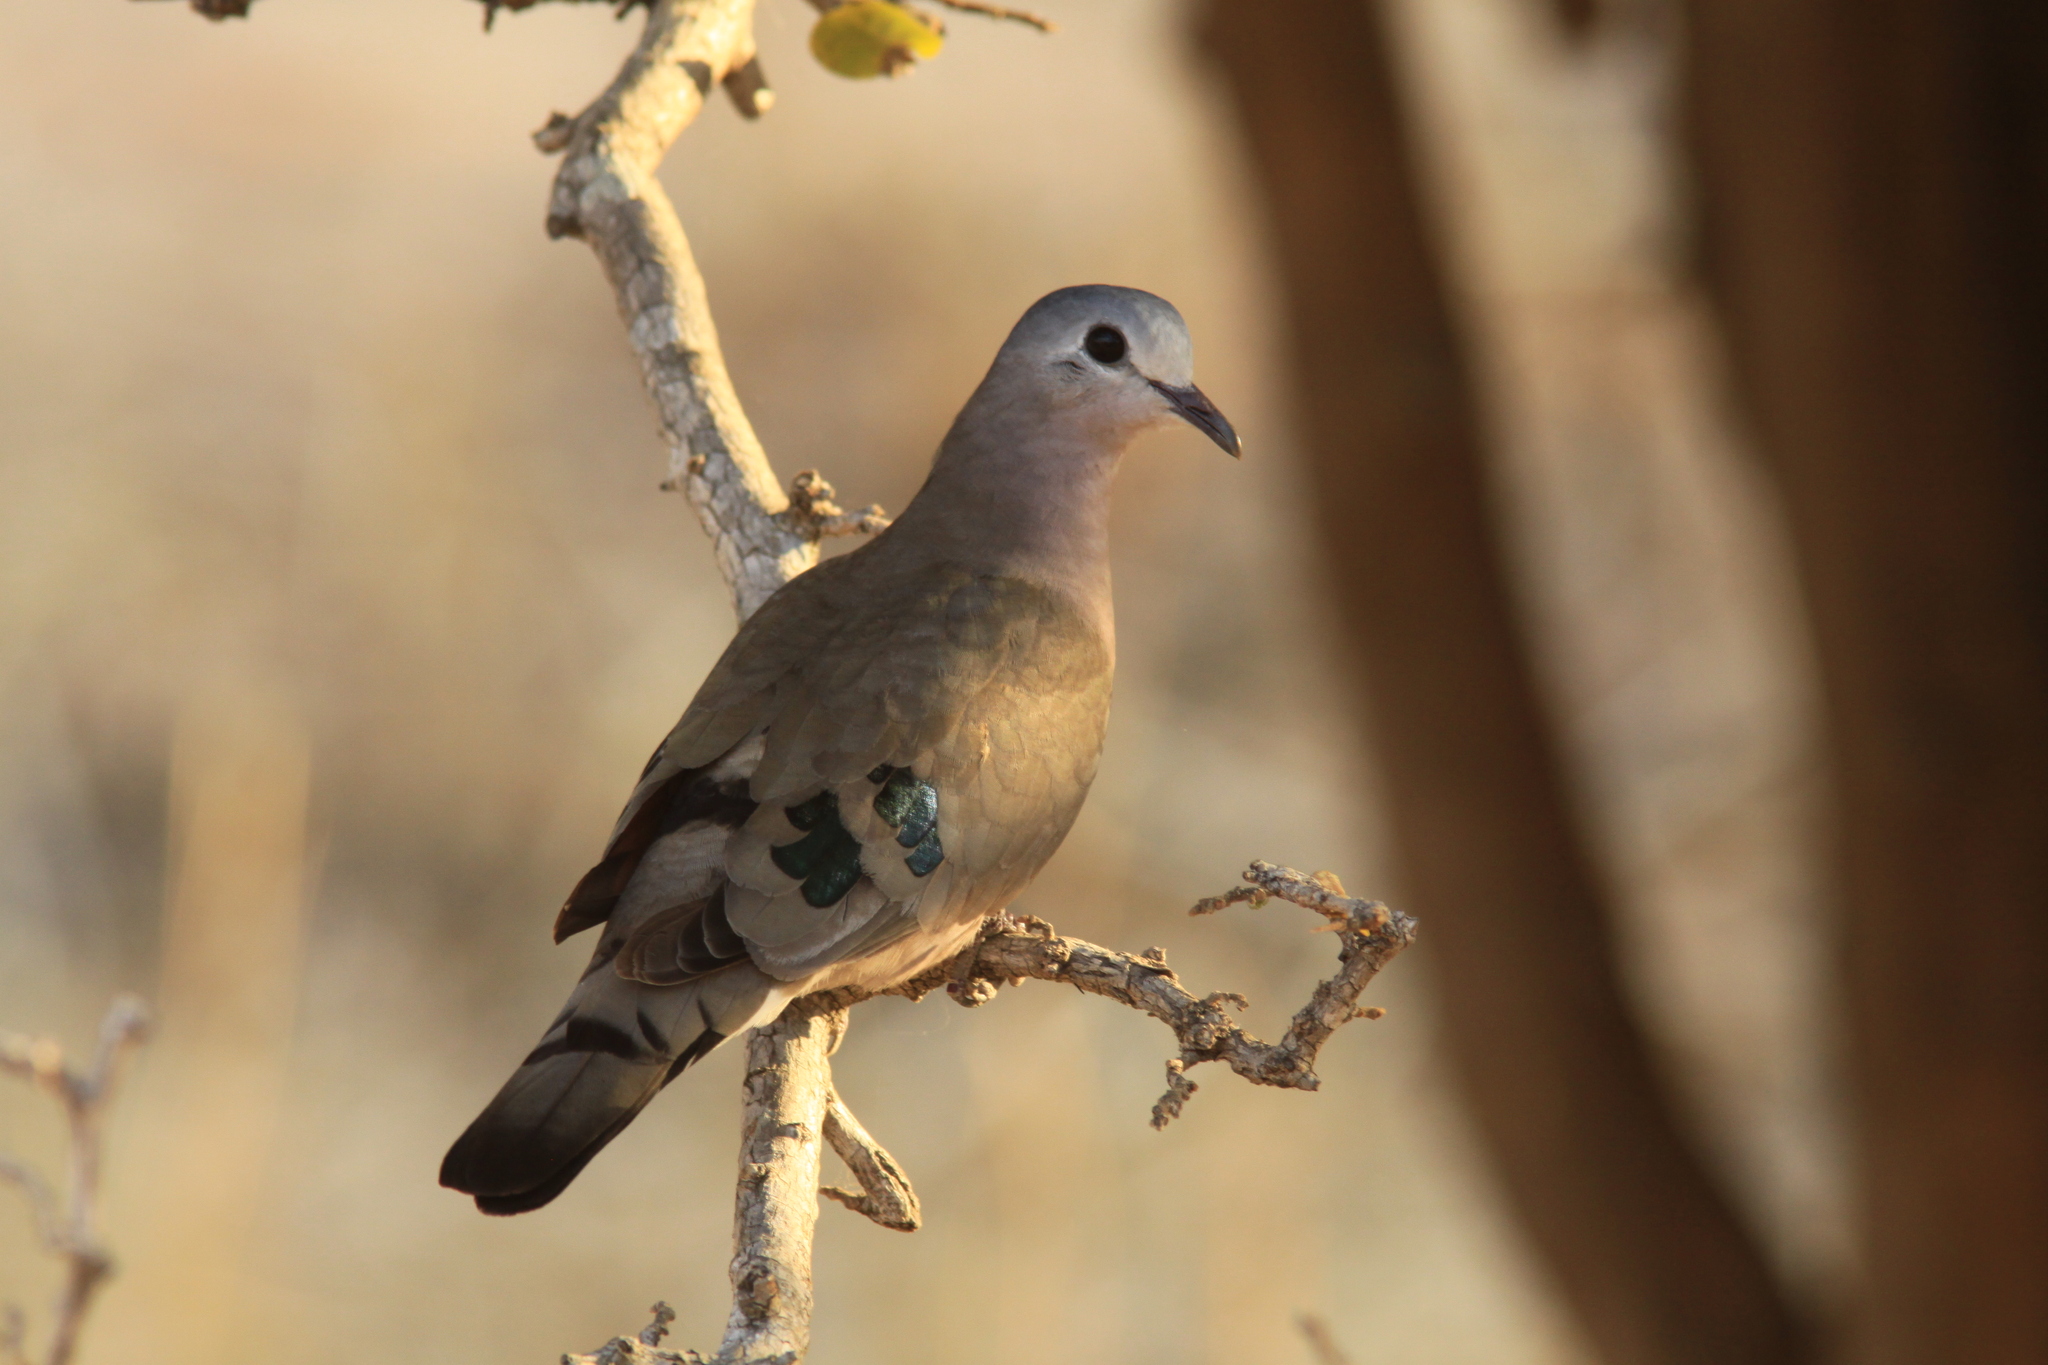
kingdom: Animalia
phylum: Chordata
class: Aves
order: Columbiformes
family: Columbidae
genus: Turtur
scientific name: Turtur chalcospilos
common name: Emerald-spotted wood dove
